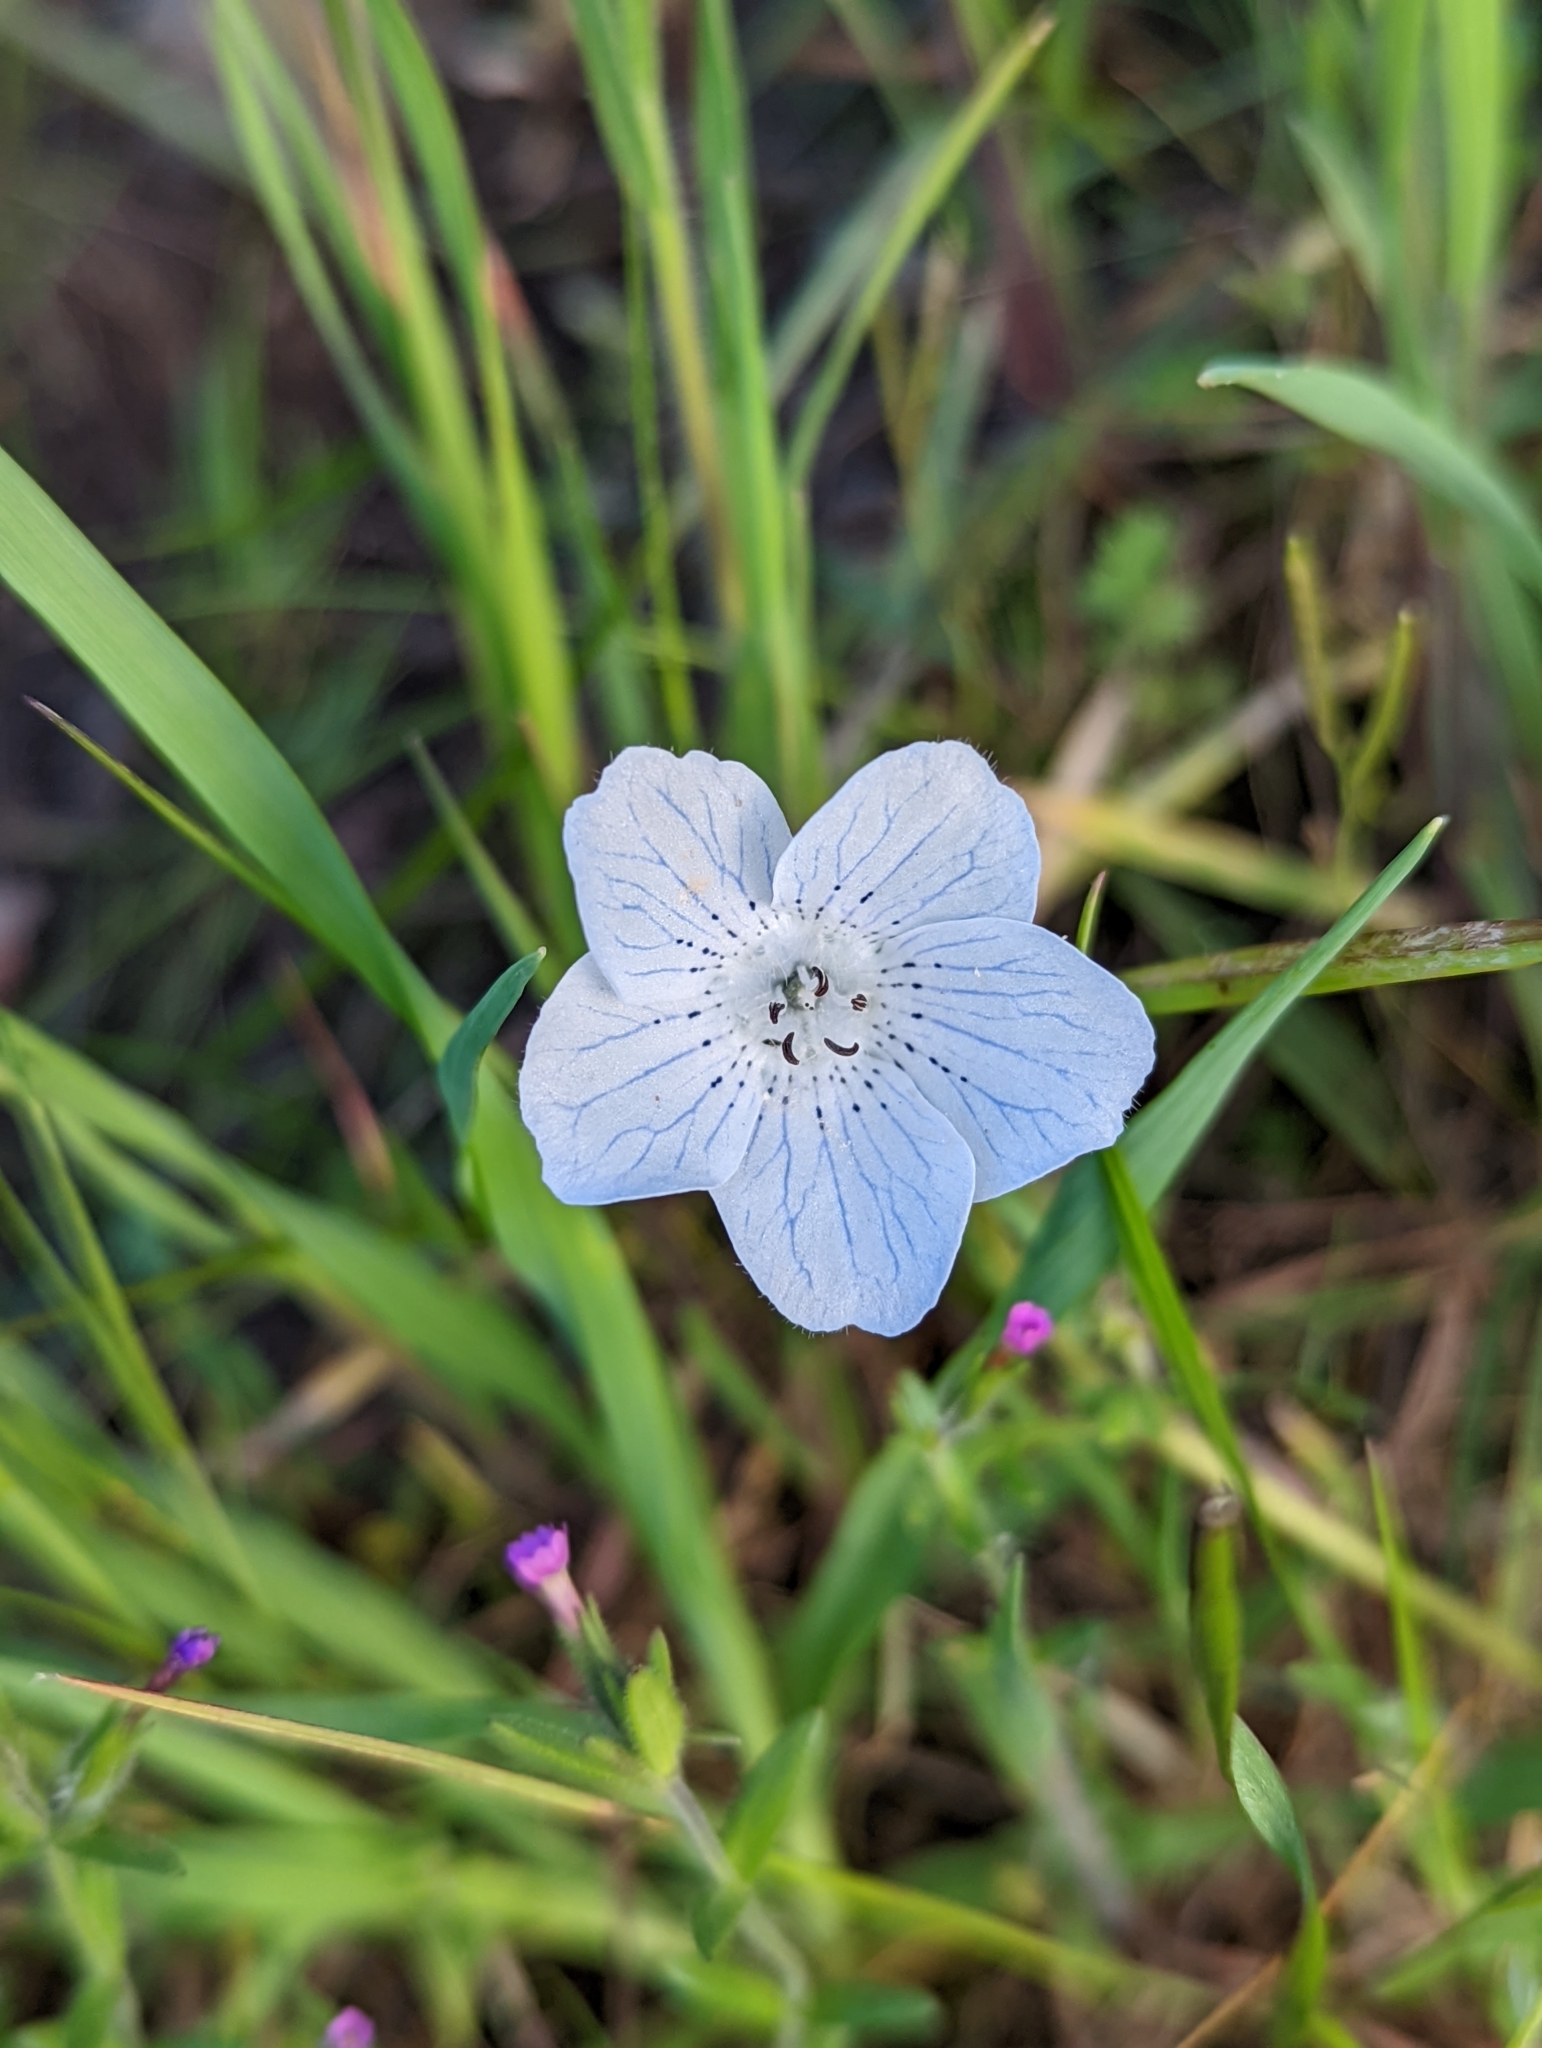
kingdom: Plantae
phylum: Tracheophyta
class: Magnoliopsida
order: Boraginales
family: Hydrophyllaceae
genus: Nemophila
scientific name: Nemophila menziesii
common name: Baby's-blue-eyes
